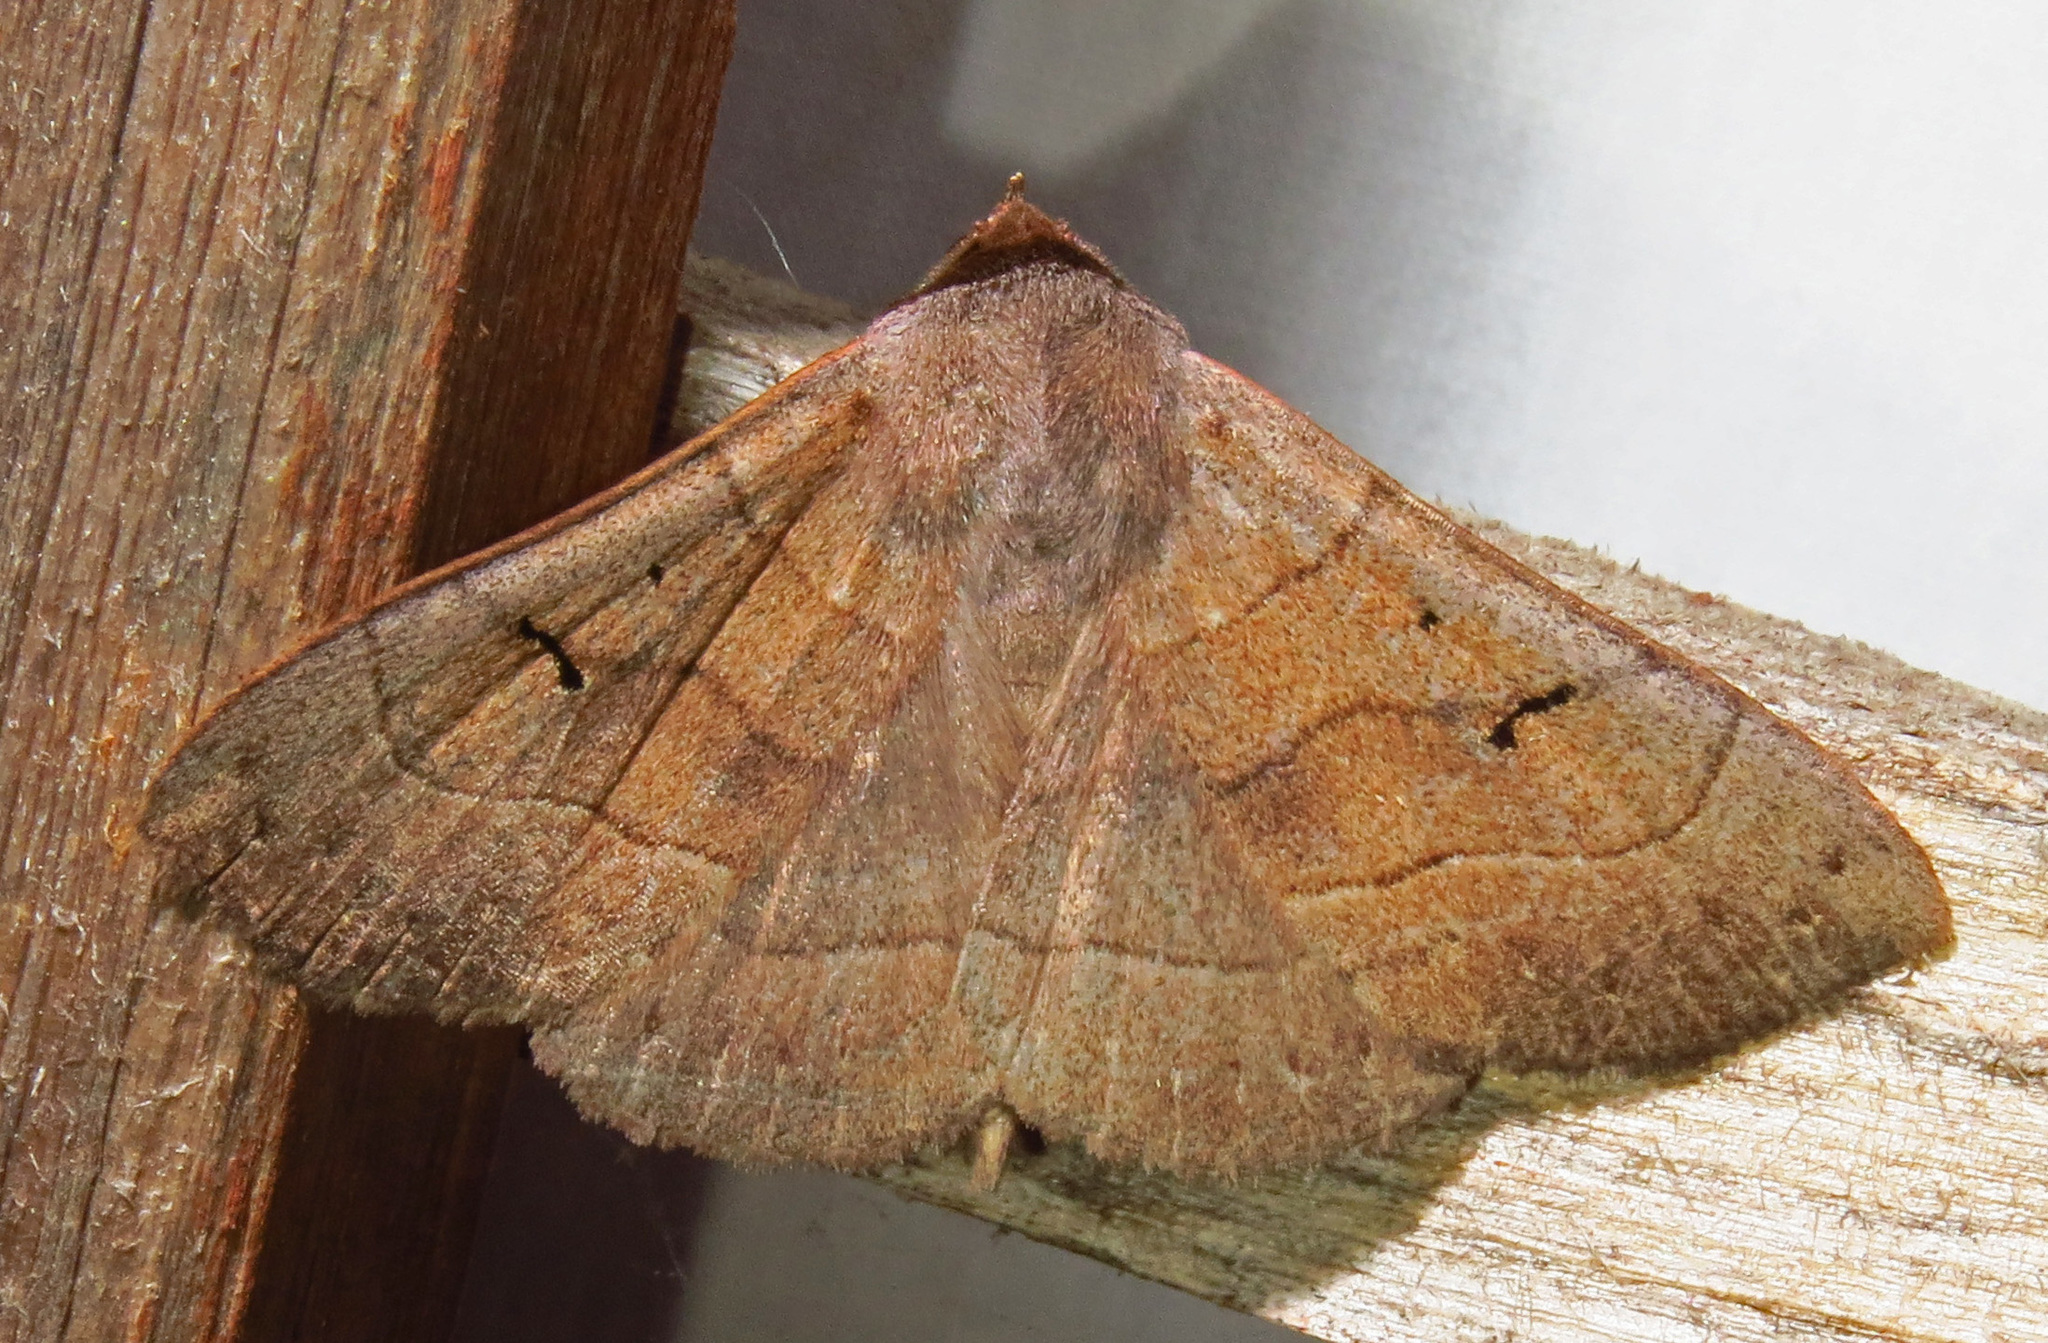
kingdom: Animalia
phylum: Arthropoda
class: Insecta
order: Lepidoptera
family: Erebidae
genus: Panopoda
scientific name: Panopoda carneicosta
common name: Brown panopoda moth
